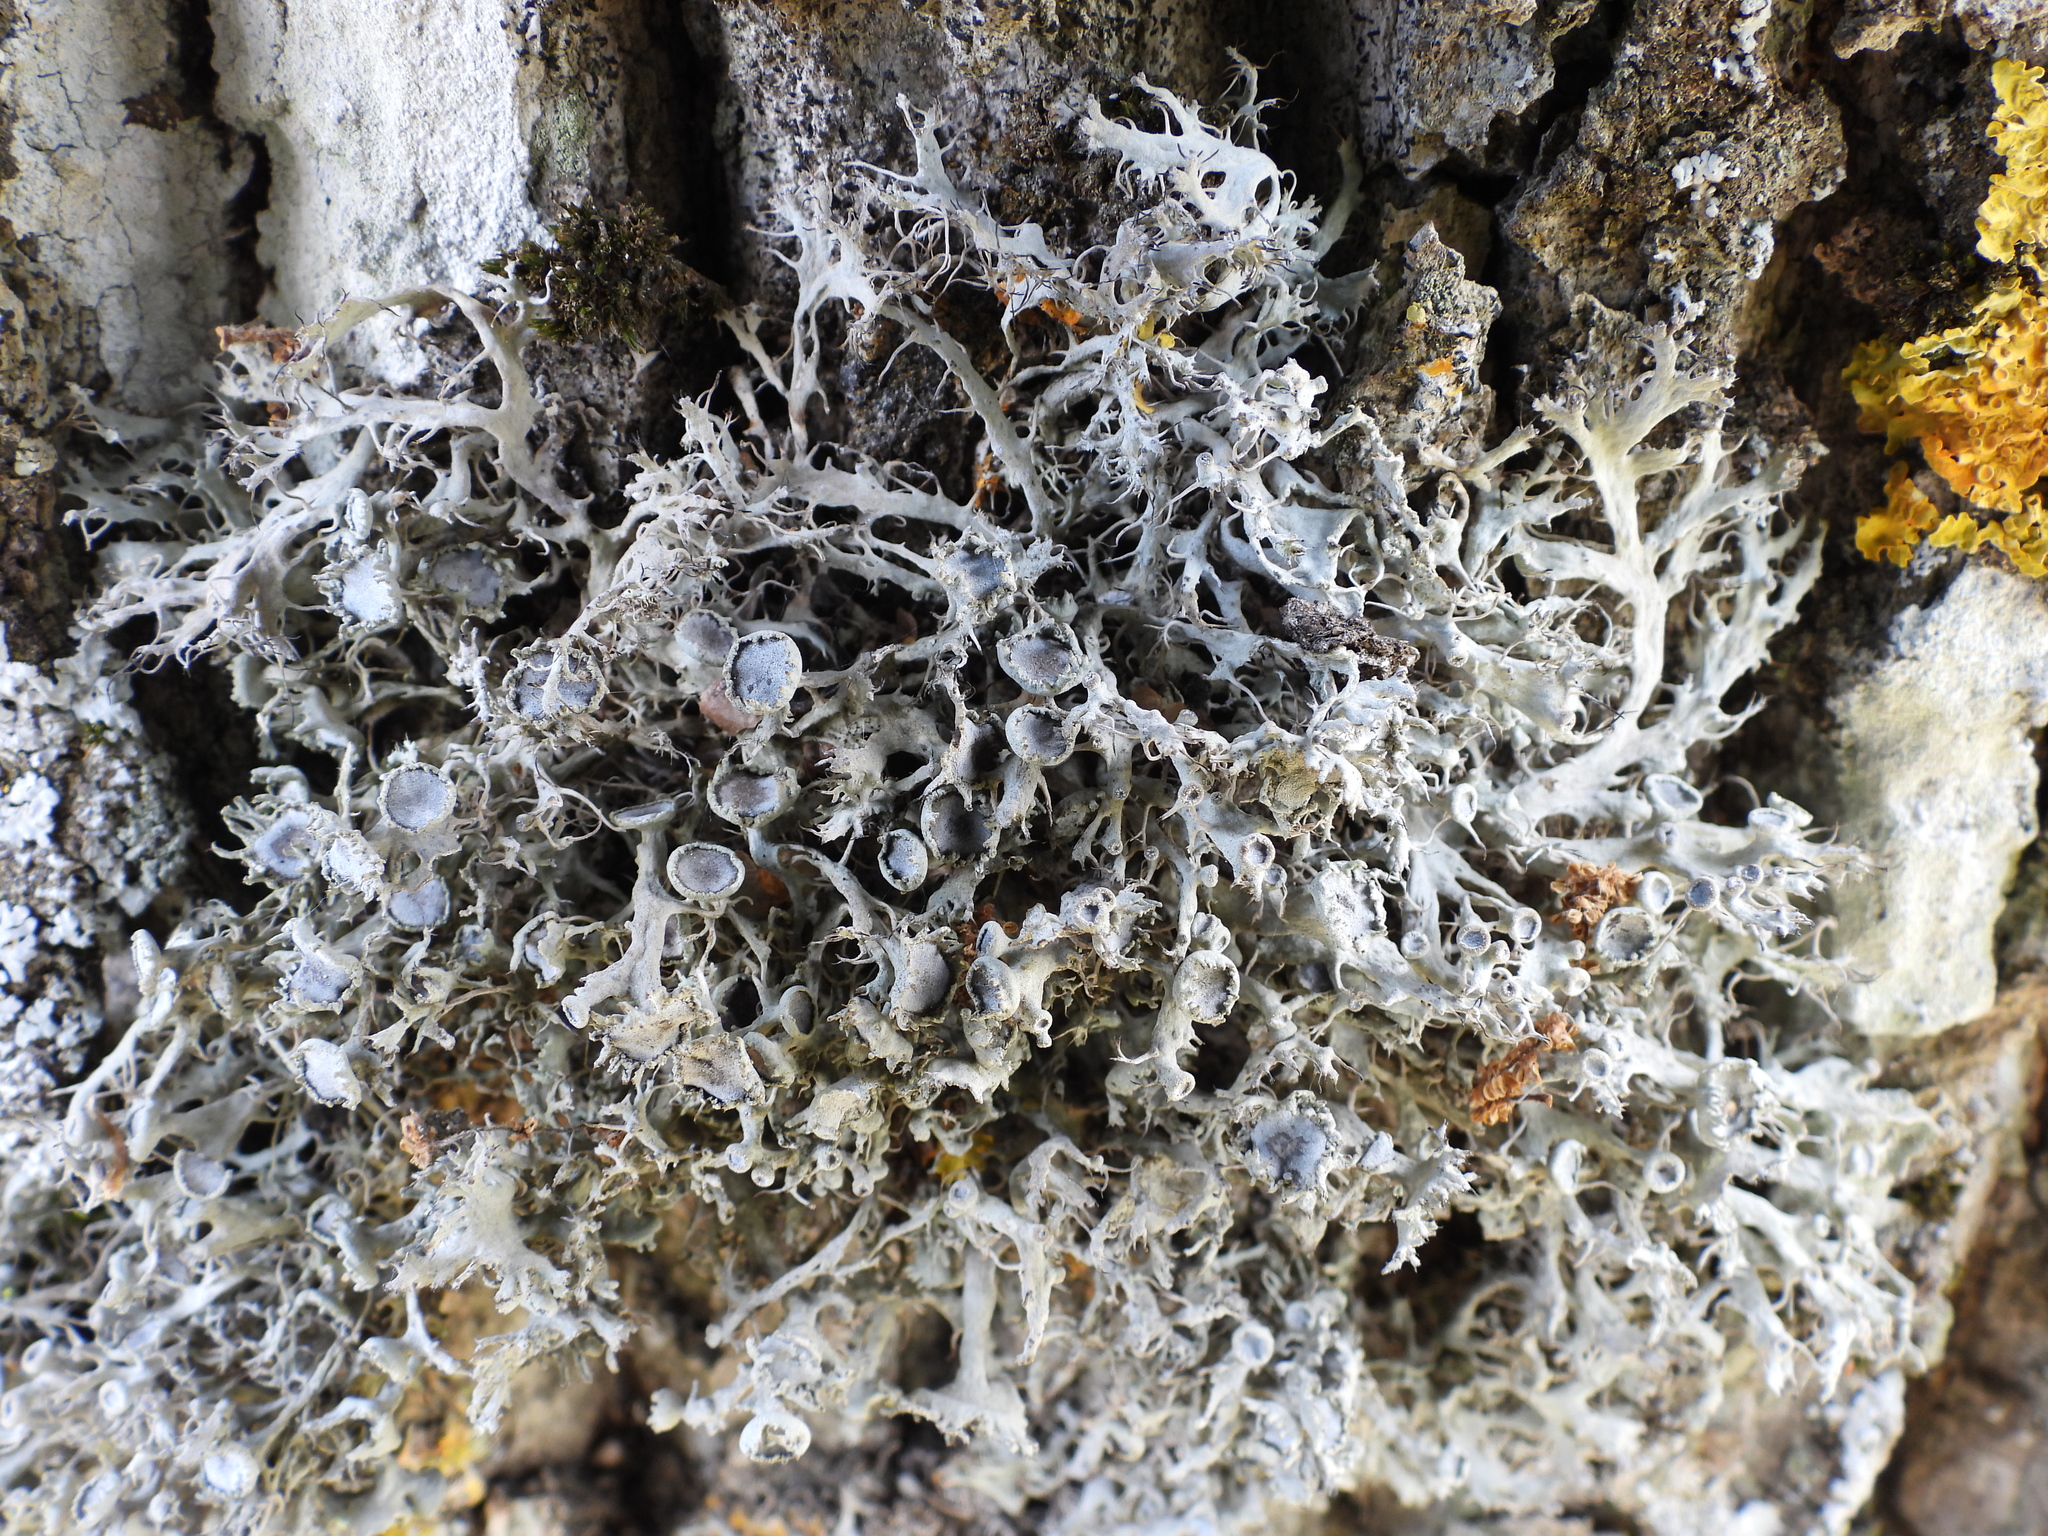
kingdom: Fungi
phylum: Ascomycota
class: Lecanoromycetes
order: Caliciales
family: Physciaceae
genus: Anaptychia
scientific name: Anaptychia ciliaris
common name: Great ciliated lichen
